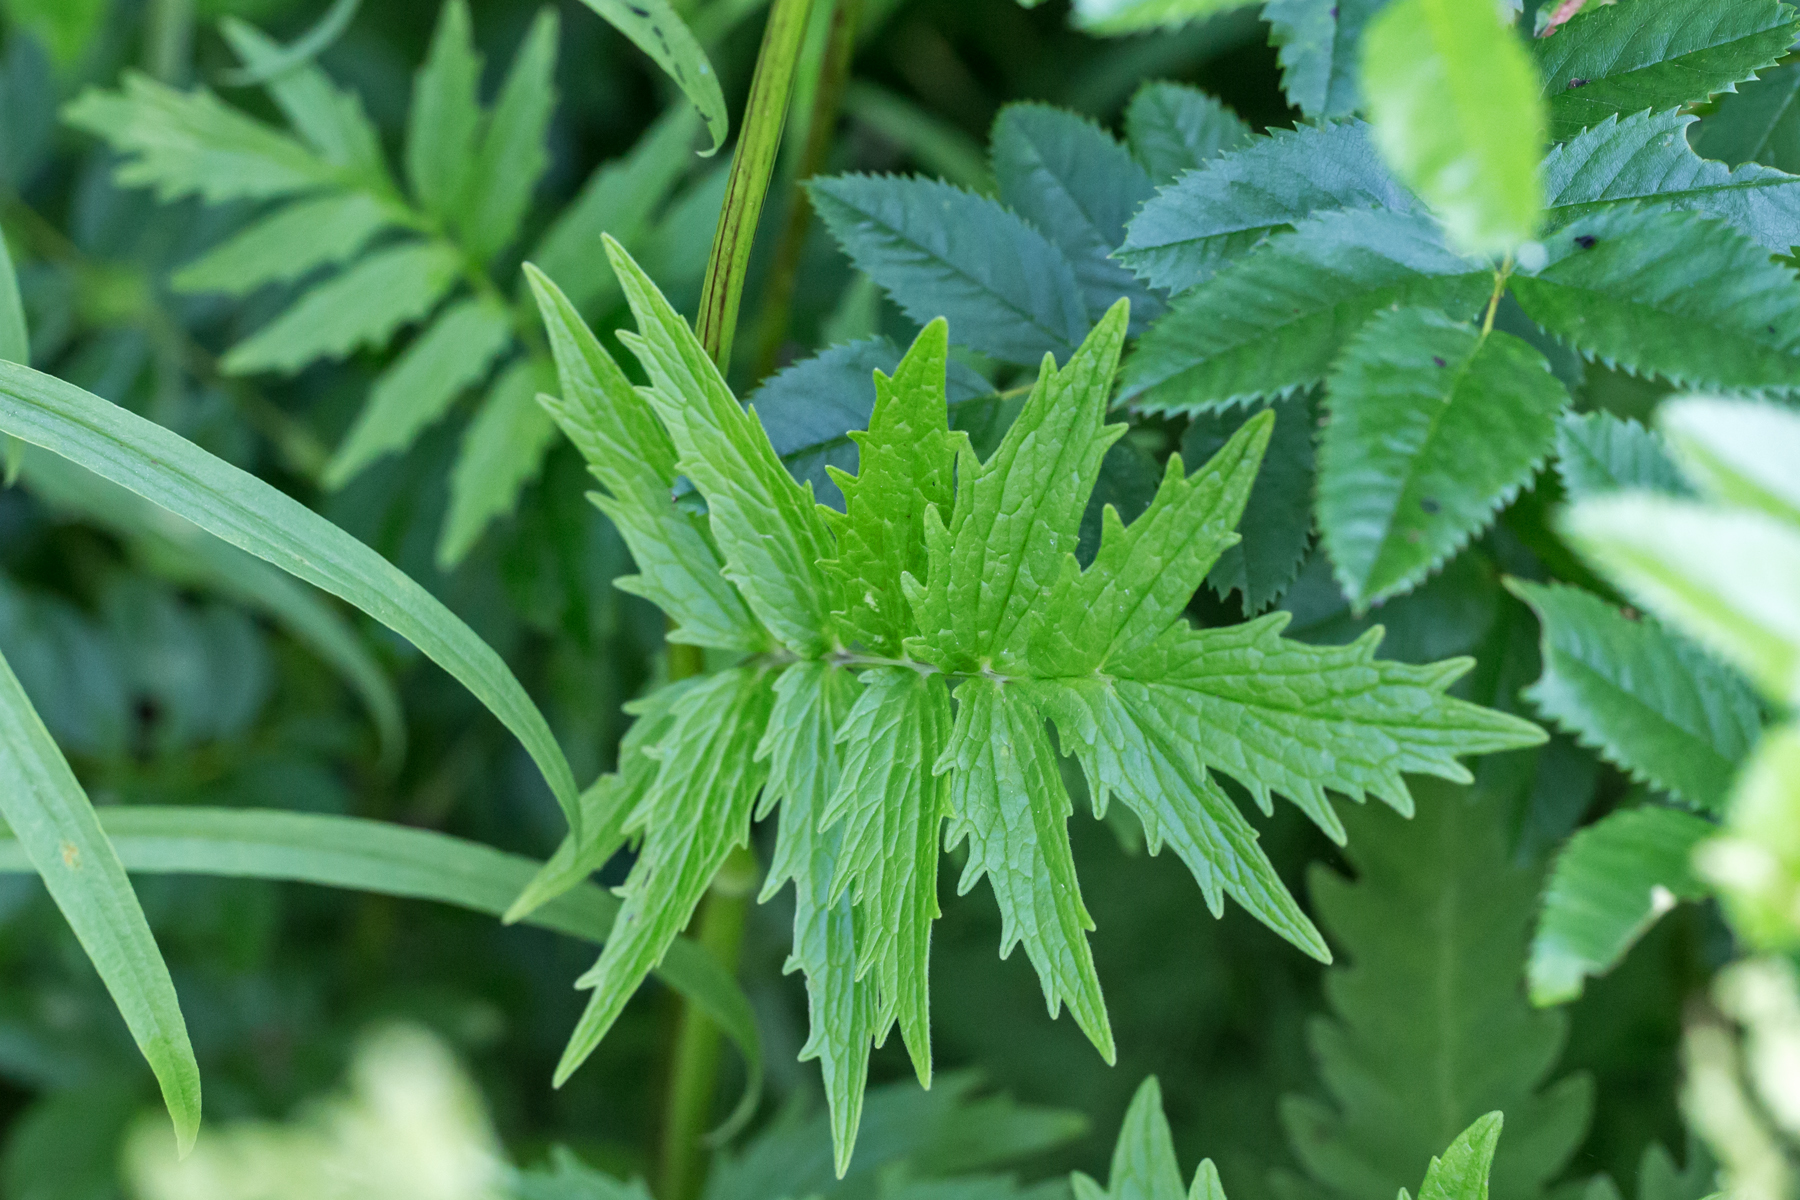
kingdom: Plantae
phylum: Tracheophyta
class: Magnoliopsida
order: Dipsacales
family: Caprifoliaceae
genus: Valeriana
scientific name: Valeriana officinalis
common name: Common valerian
